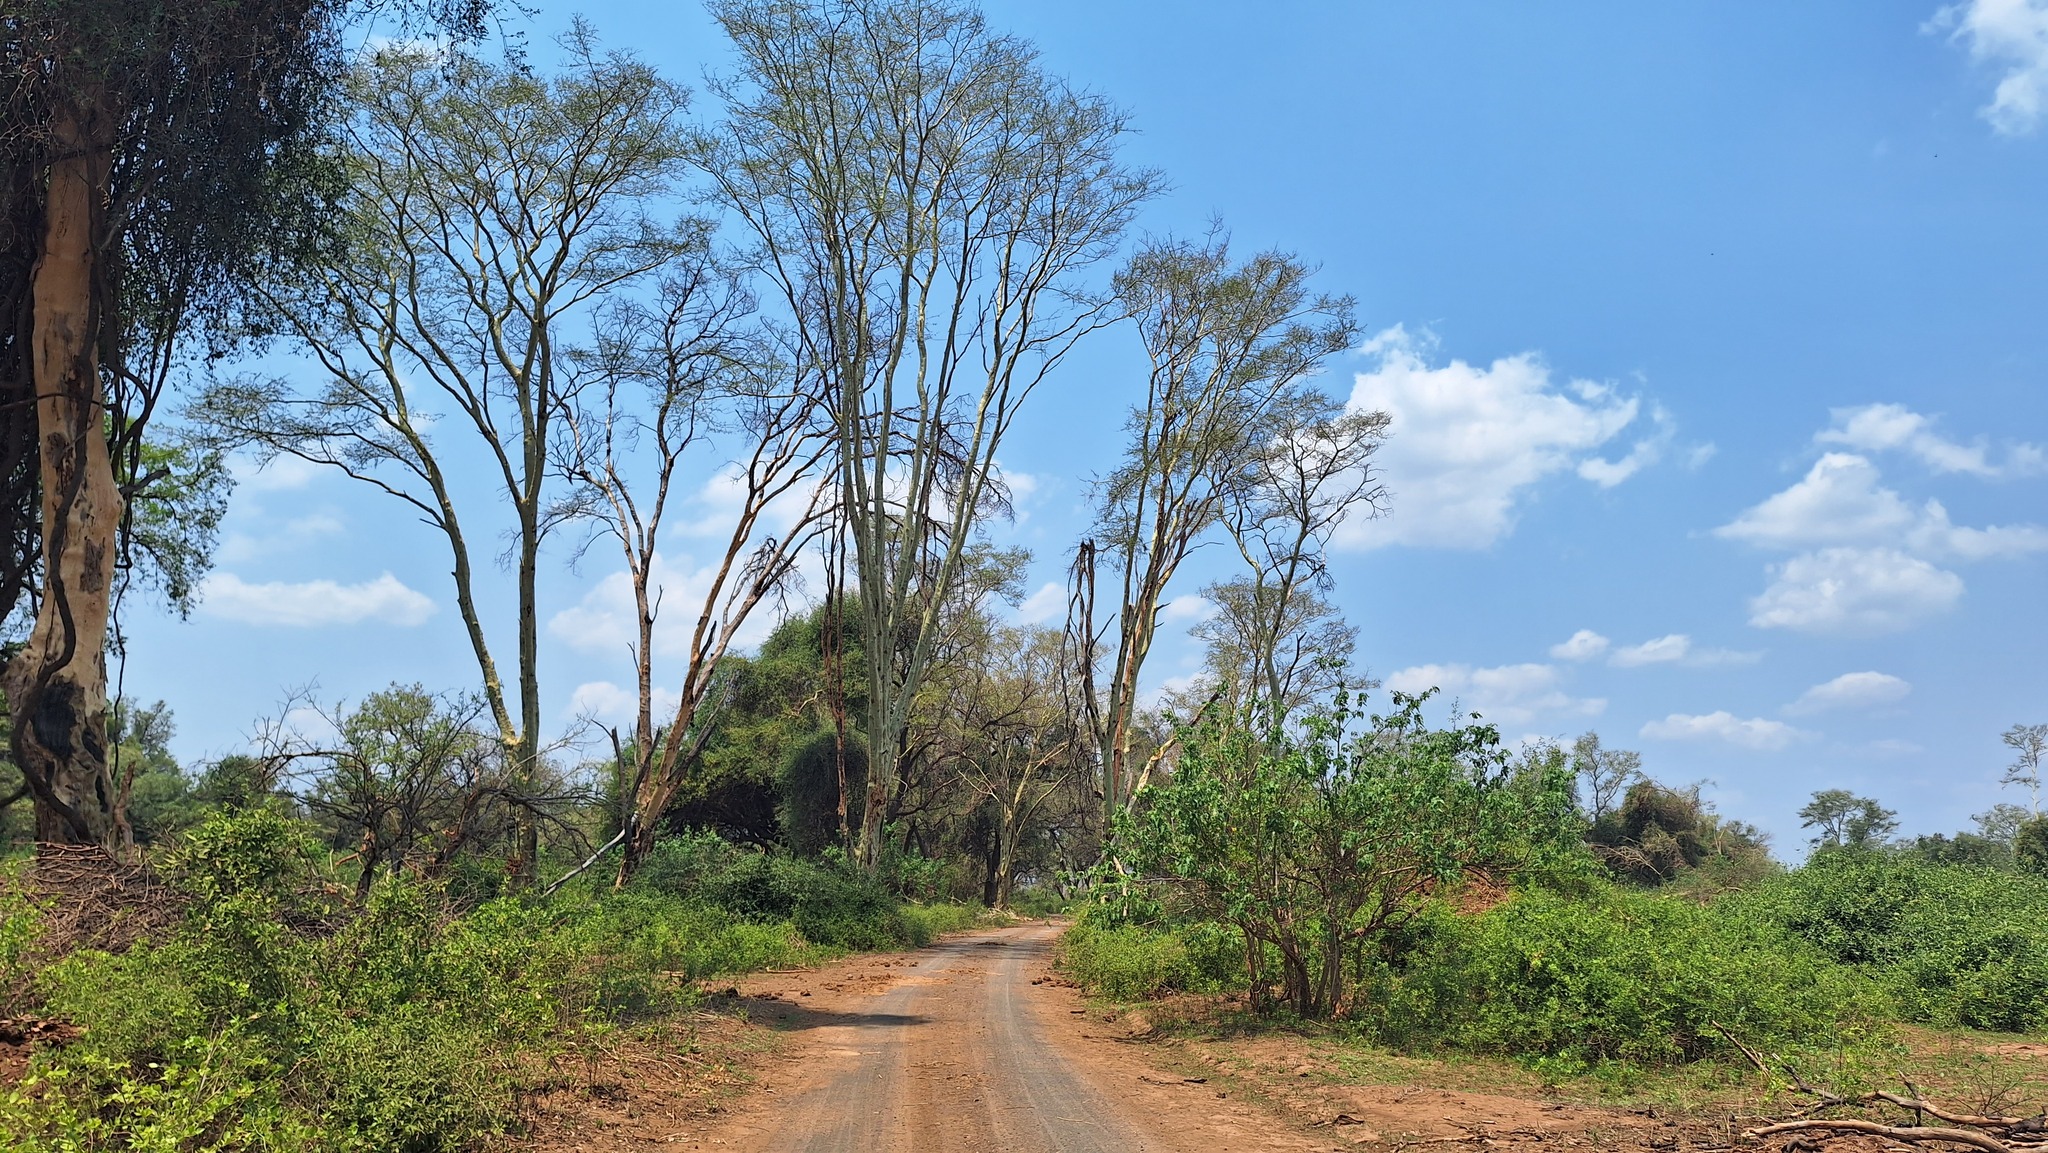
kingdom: Plantae
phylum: Tracheophyta
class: Magnoliopsida
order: Fabales
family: Fabaceae
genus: Vachellia
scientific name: Vachellia xanthophloea
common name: Fever tree
